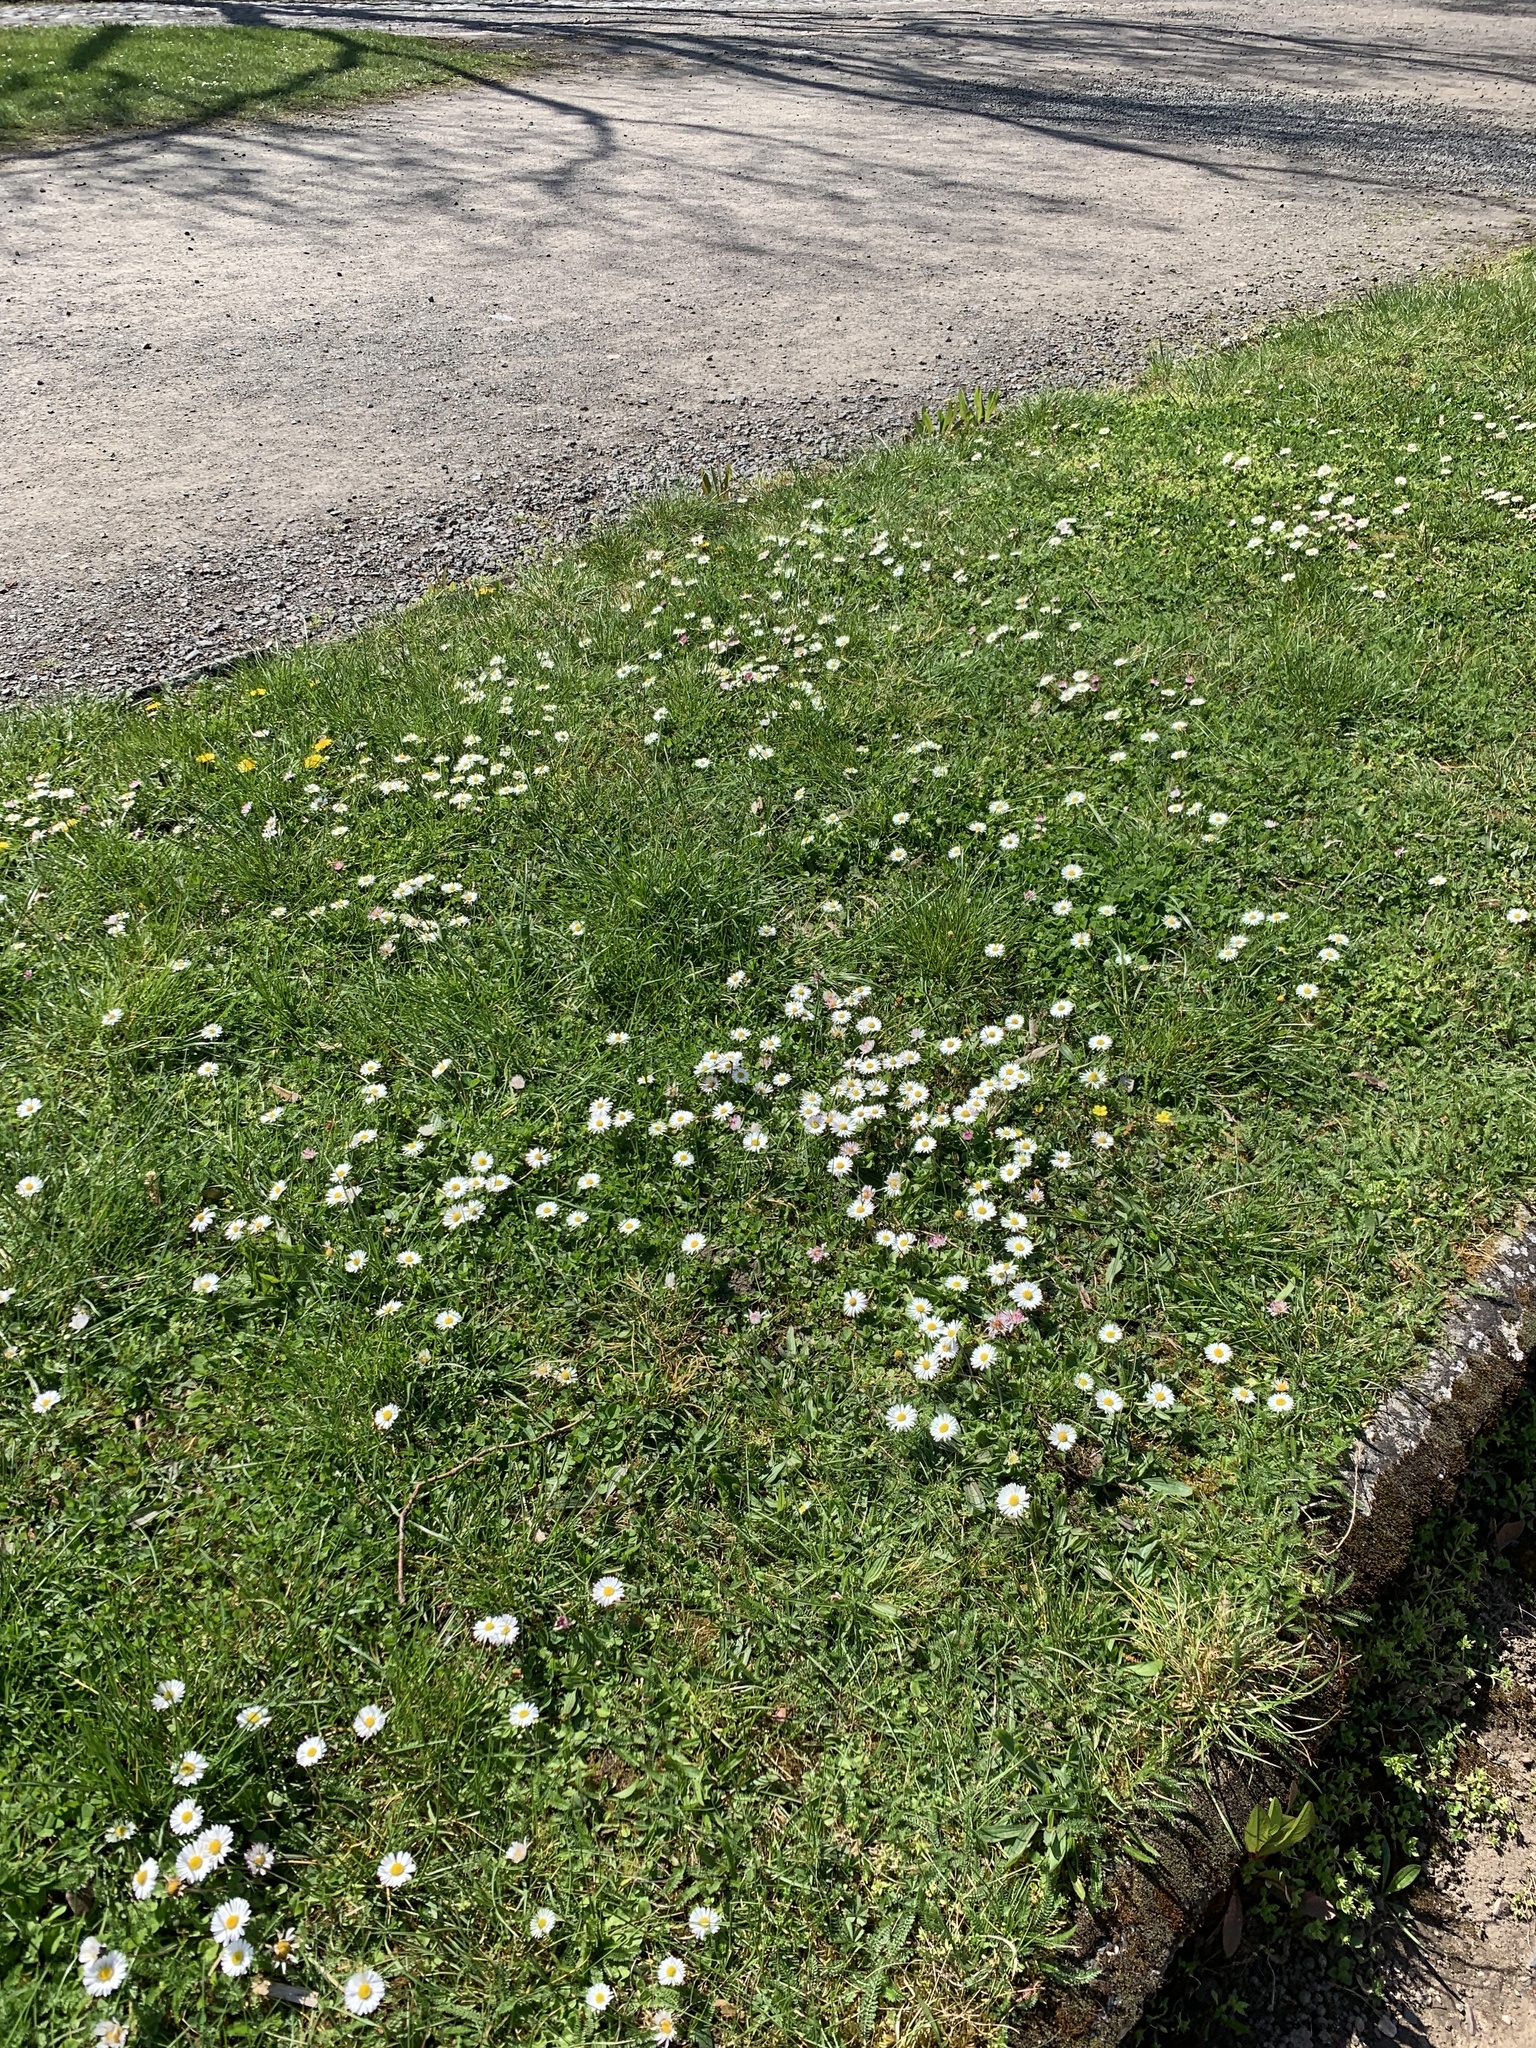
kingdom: Plantae
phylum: Tracheophyta
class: Magnoliopsida
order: Asterales
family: Asteraceae
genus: Bellis
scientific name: Bellis perennis
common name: Lawndaisy
